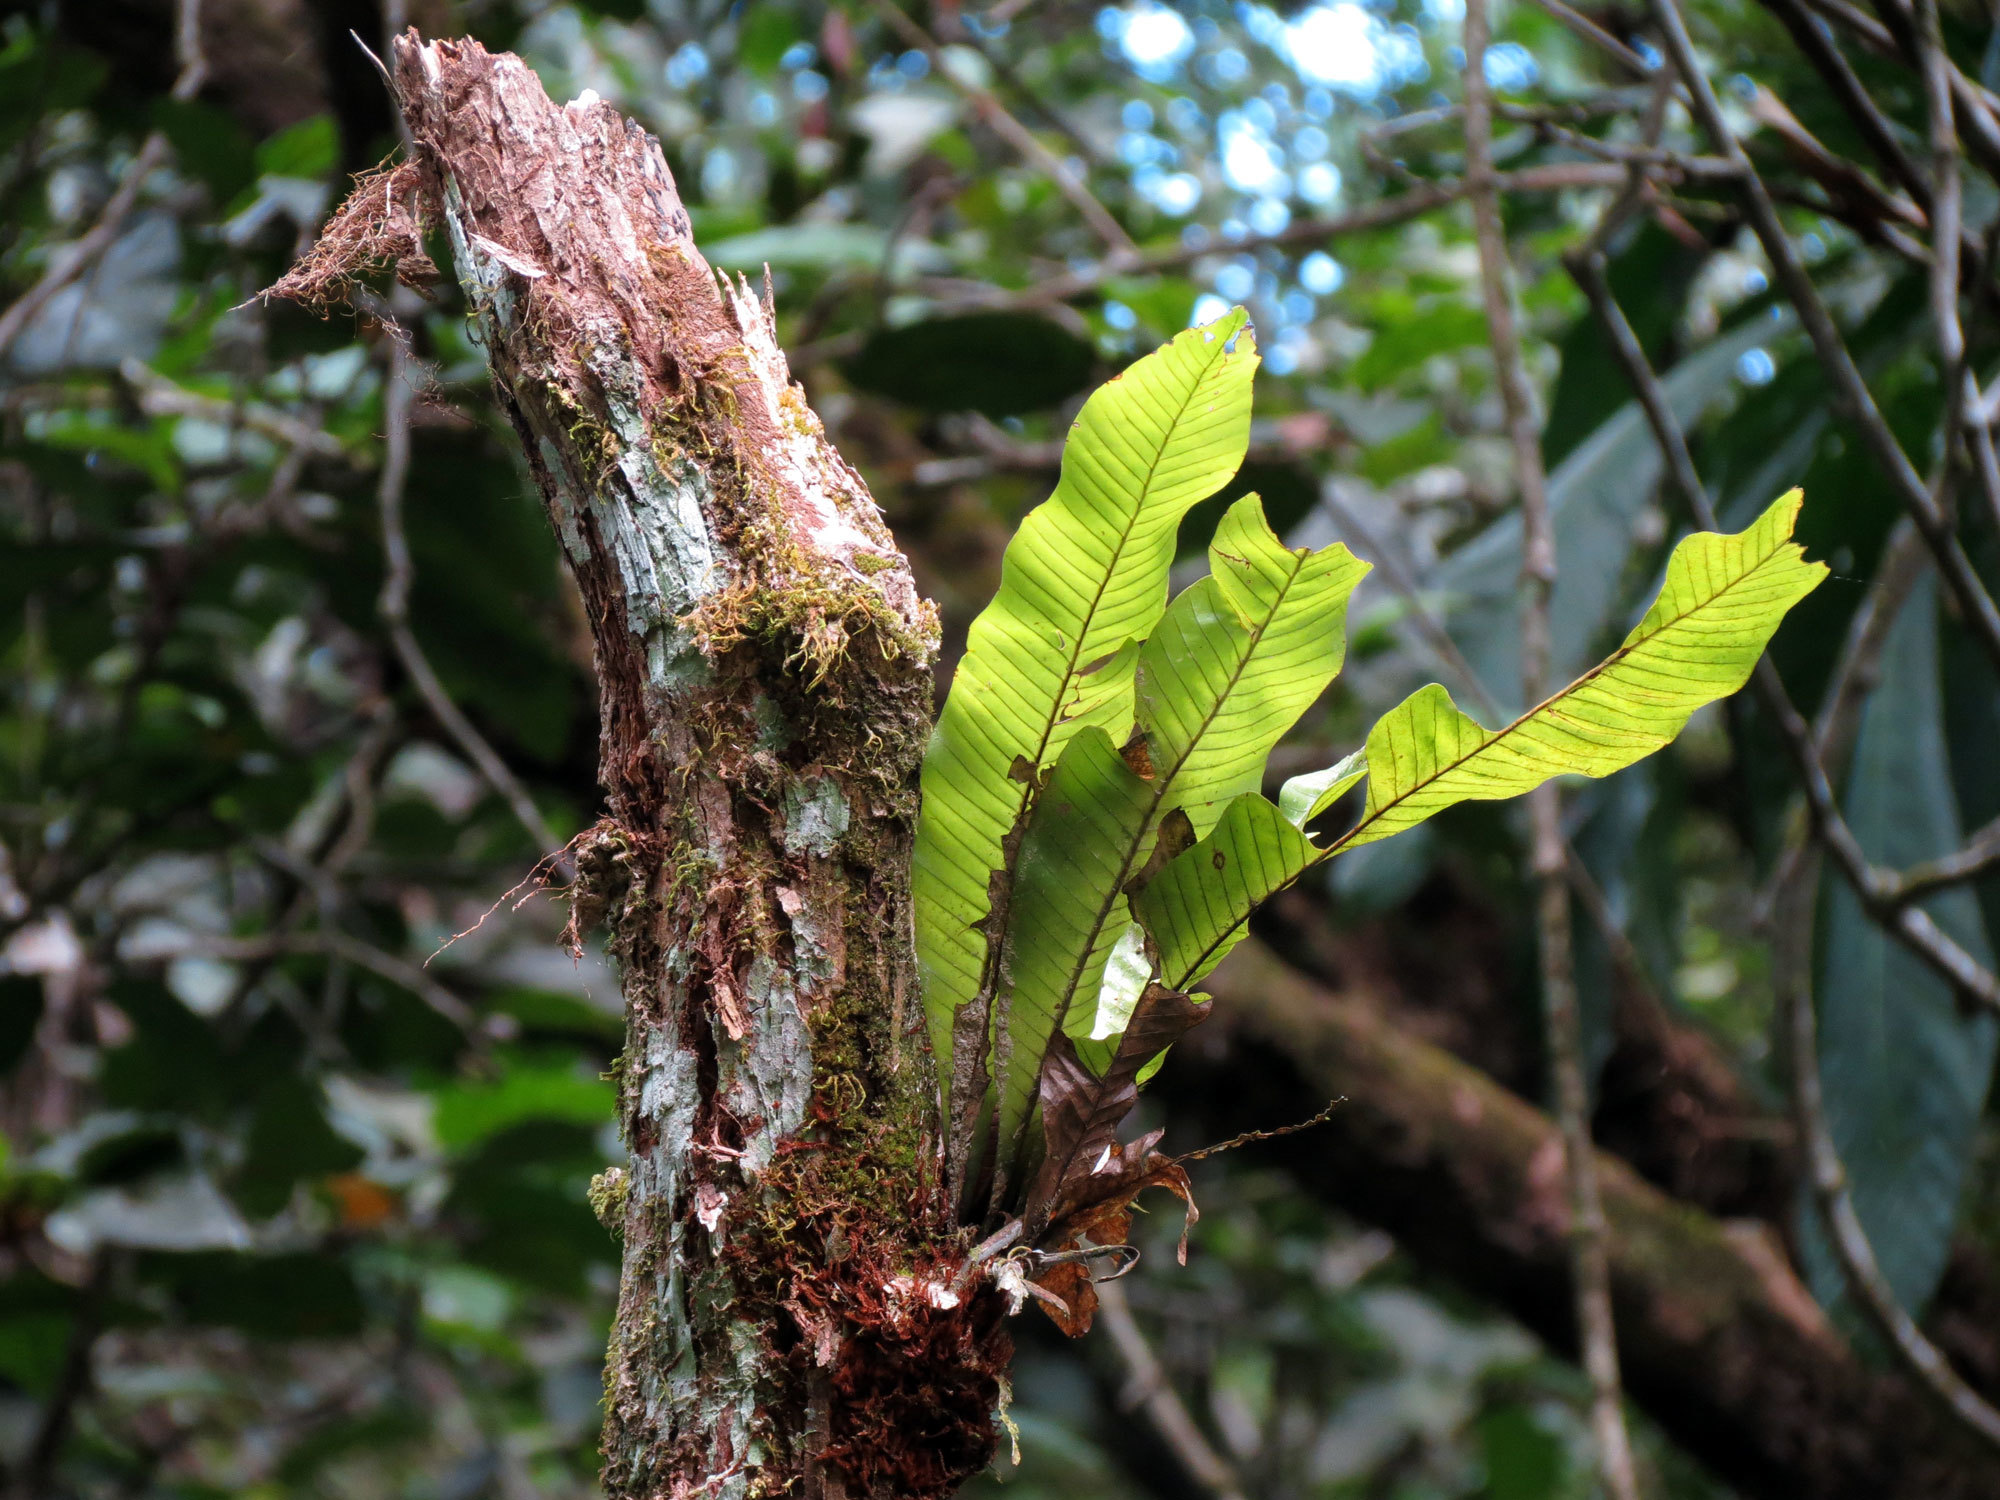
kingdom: Plantae
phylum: Tracheophyta
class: Polypodiopsida
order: Polypodiales
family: Polypodiaceae
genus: Niphidium
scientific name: Niphidium crassifolium
